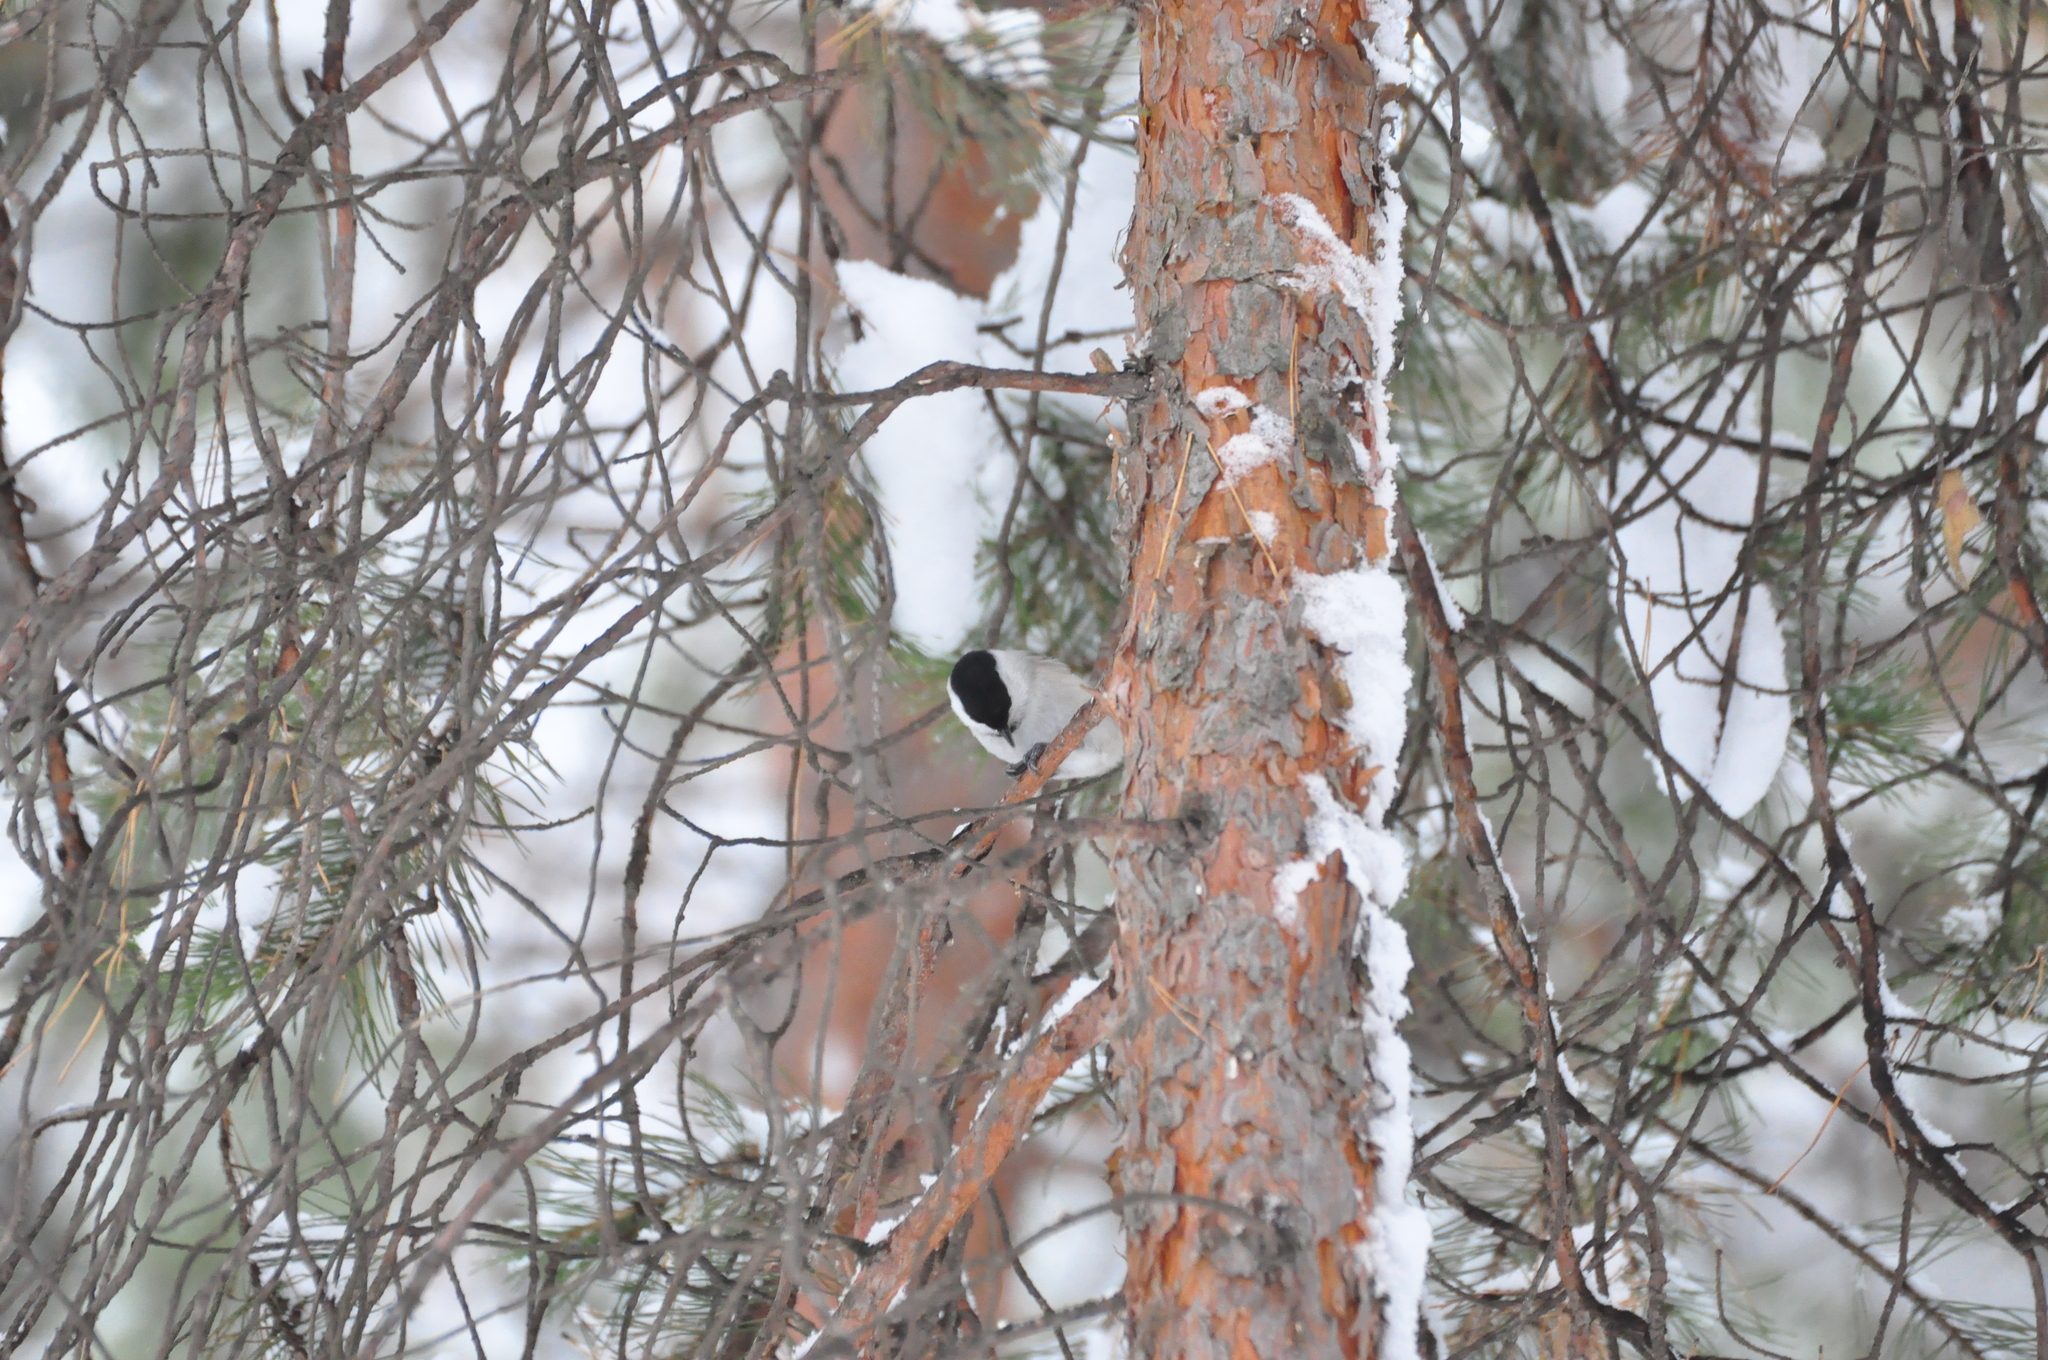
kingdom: Animalia
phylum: Chordata
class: Aves
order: Passeriformes
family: Paridae
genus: Poecile
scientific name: Poecile montanus
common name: Willow tit
